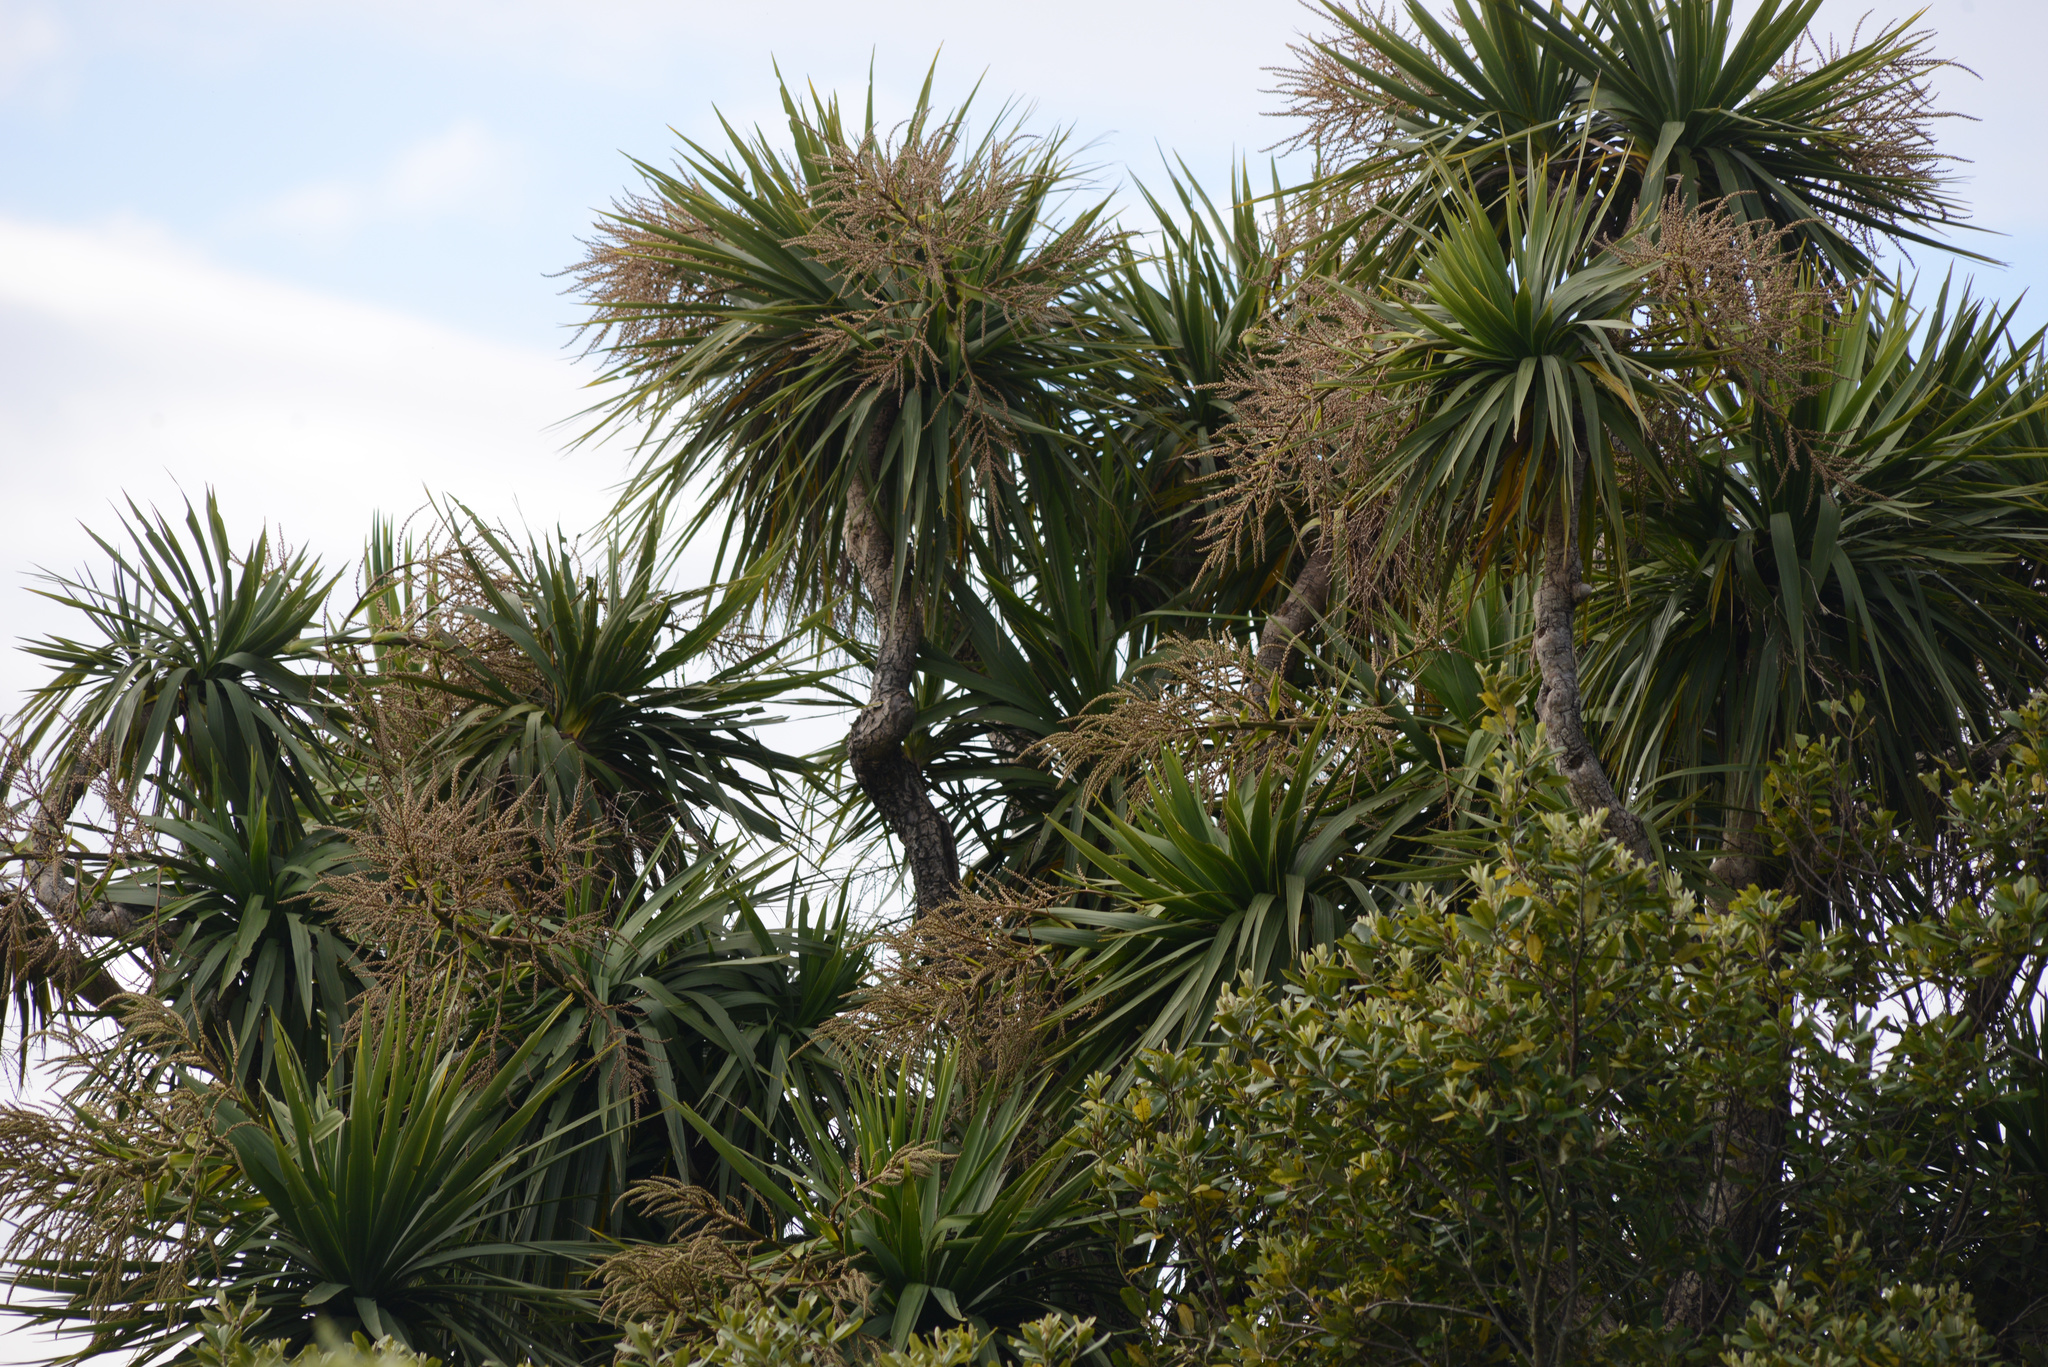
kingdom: Plantae
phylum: Tracheophyta
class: Liliopsida
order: Asparagales
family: Asparagaceae
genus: Cordyline
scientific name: Cordyline australis
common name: Cabbage-palm
